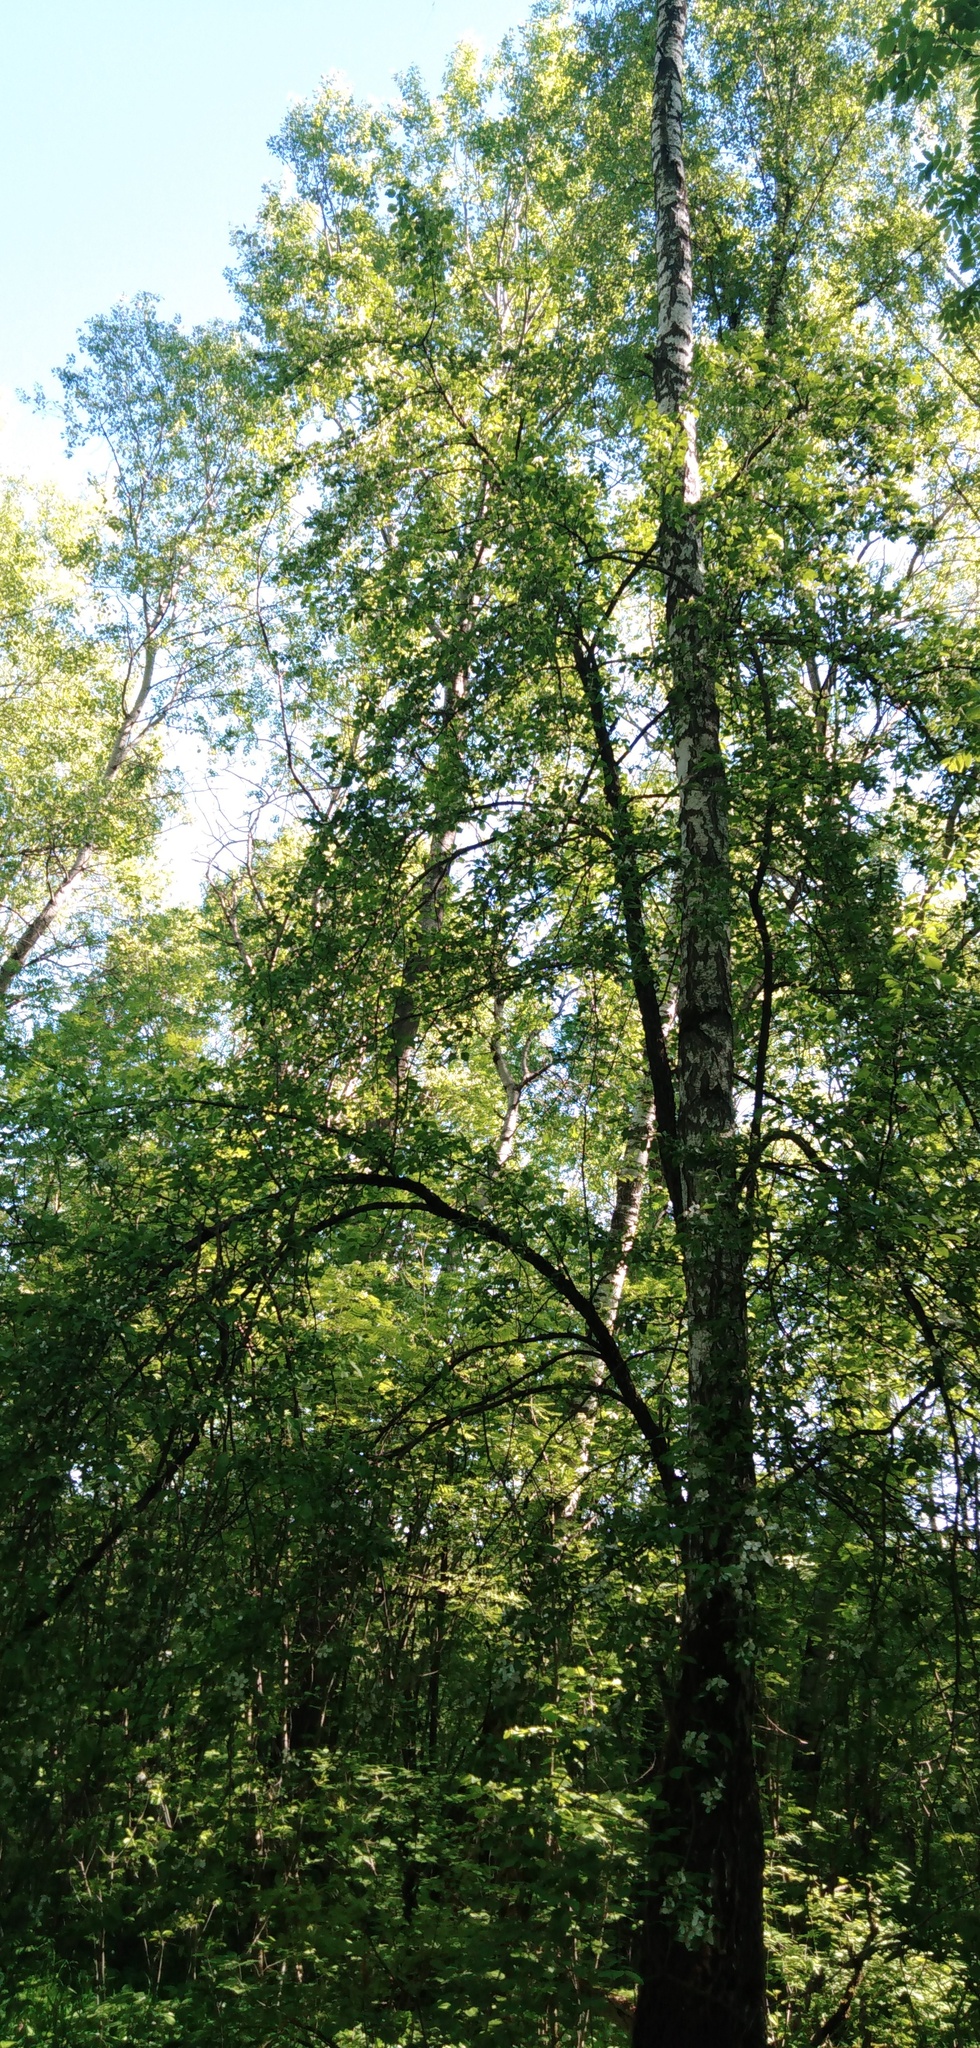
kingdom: Plantae
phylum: Tracheophyta
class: Magnoliopsida
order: Fagales
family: Betulaceae
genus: Betula
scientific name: Betula pendula
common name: Silver birch
